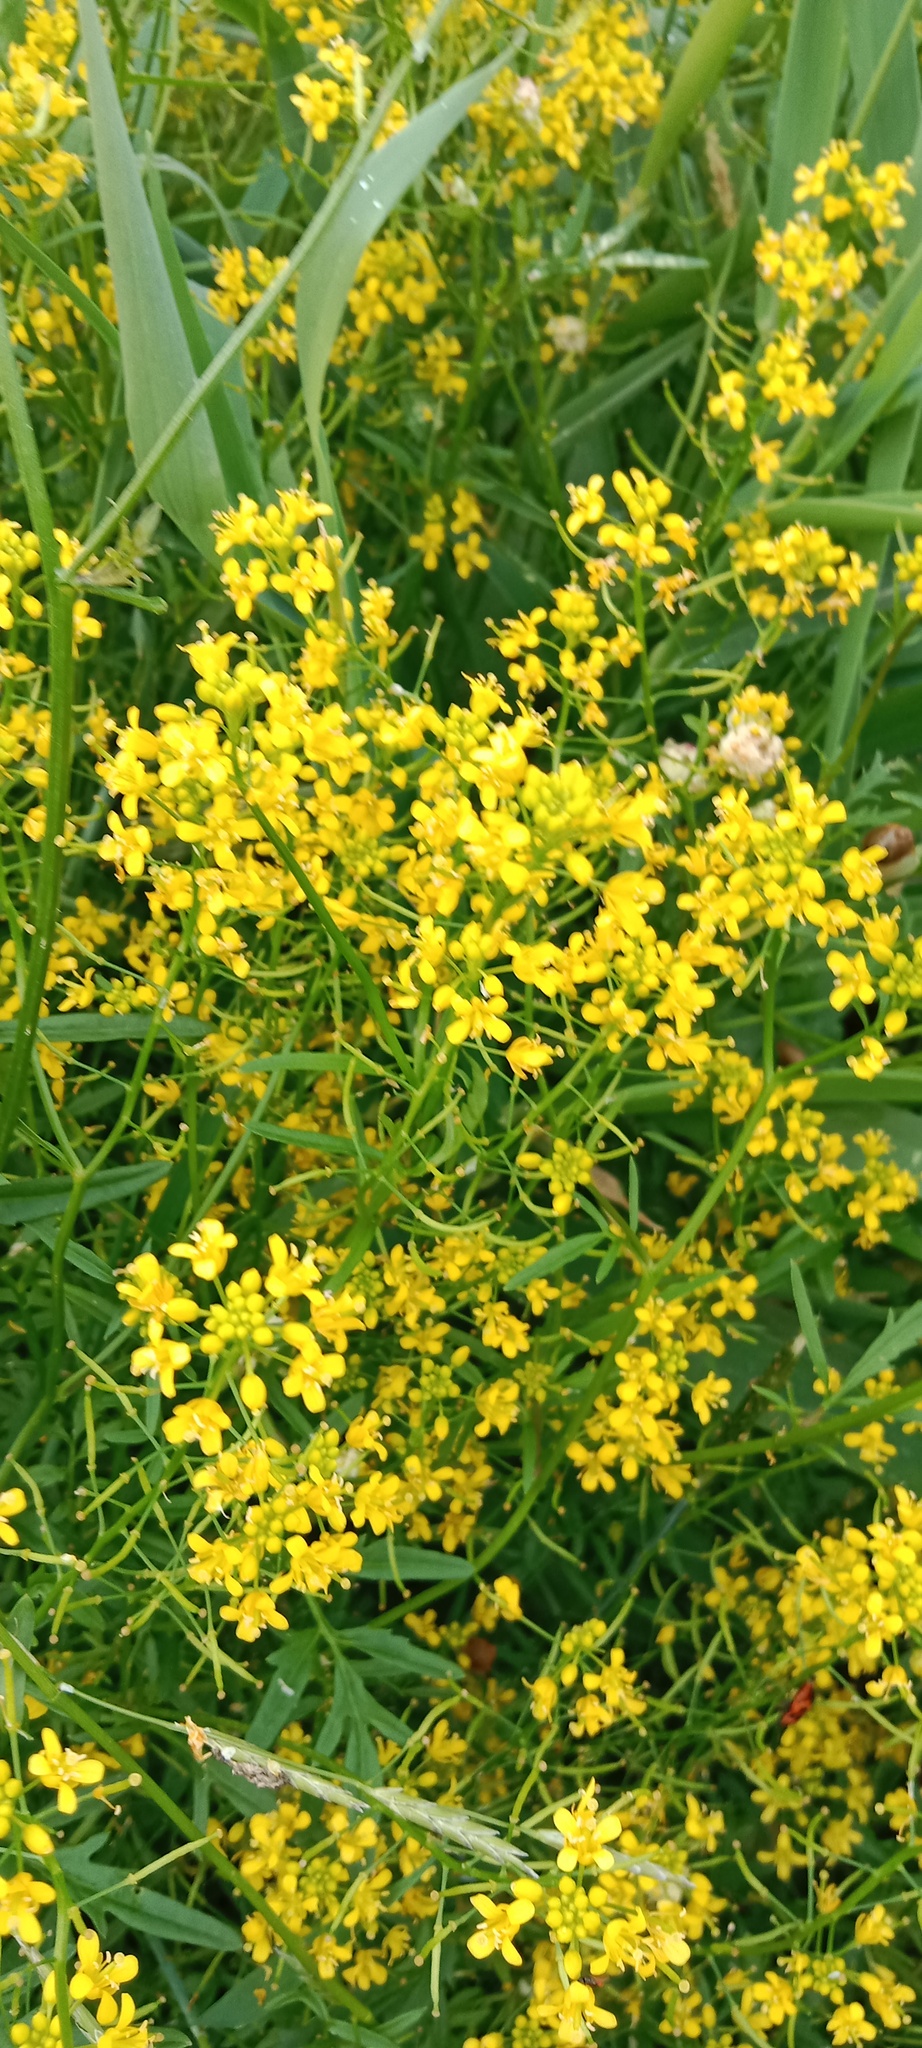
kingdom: Plantae
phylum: Tracheophyta
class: Magnoliopsida
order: Brassicales
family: Brassicaceae
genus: Rorippa
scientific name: Rorippa sylvestris
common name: Creeping yellowcress
